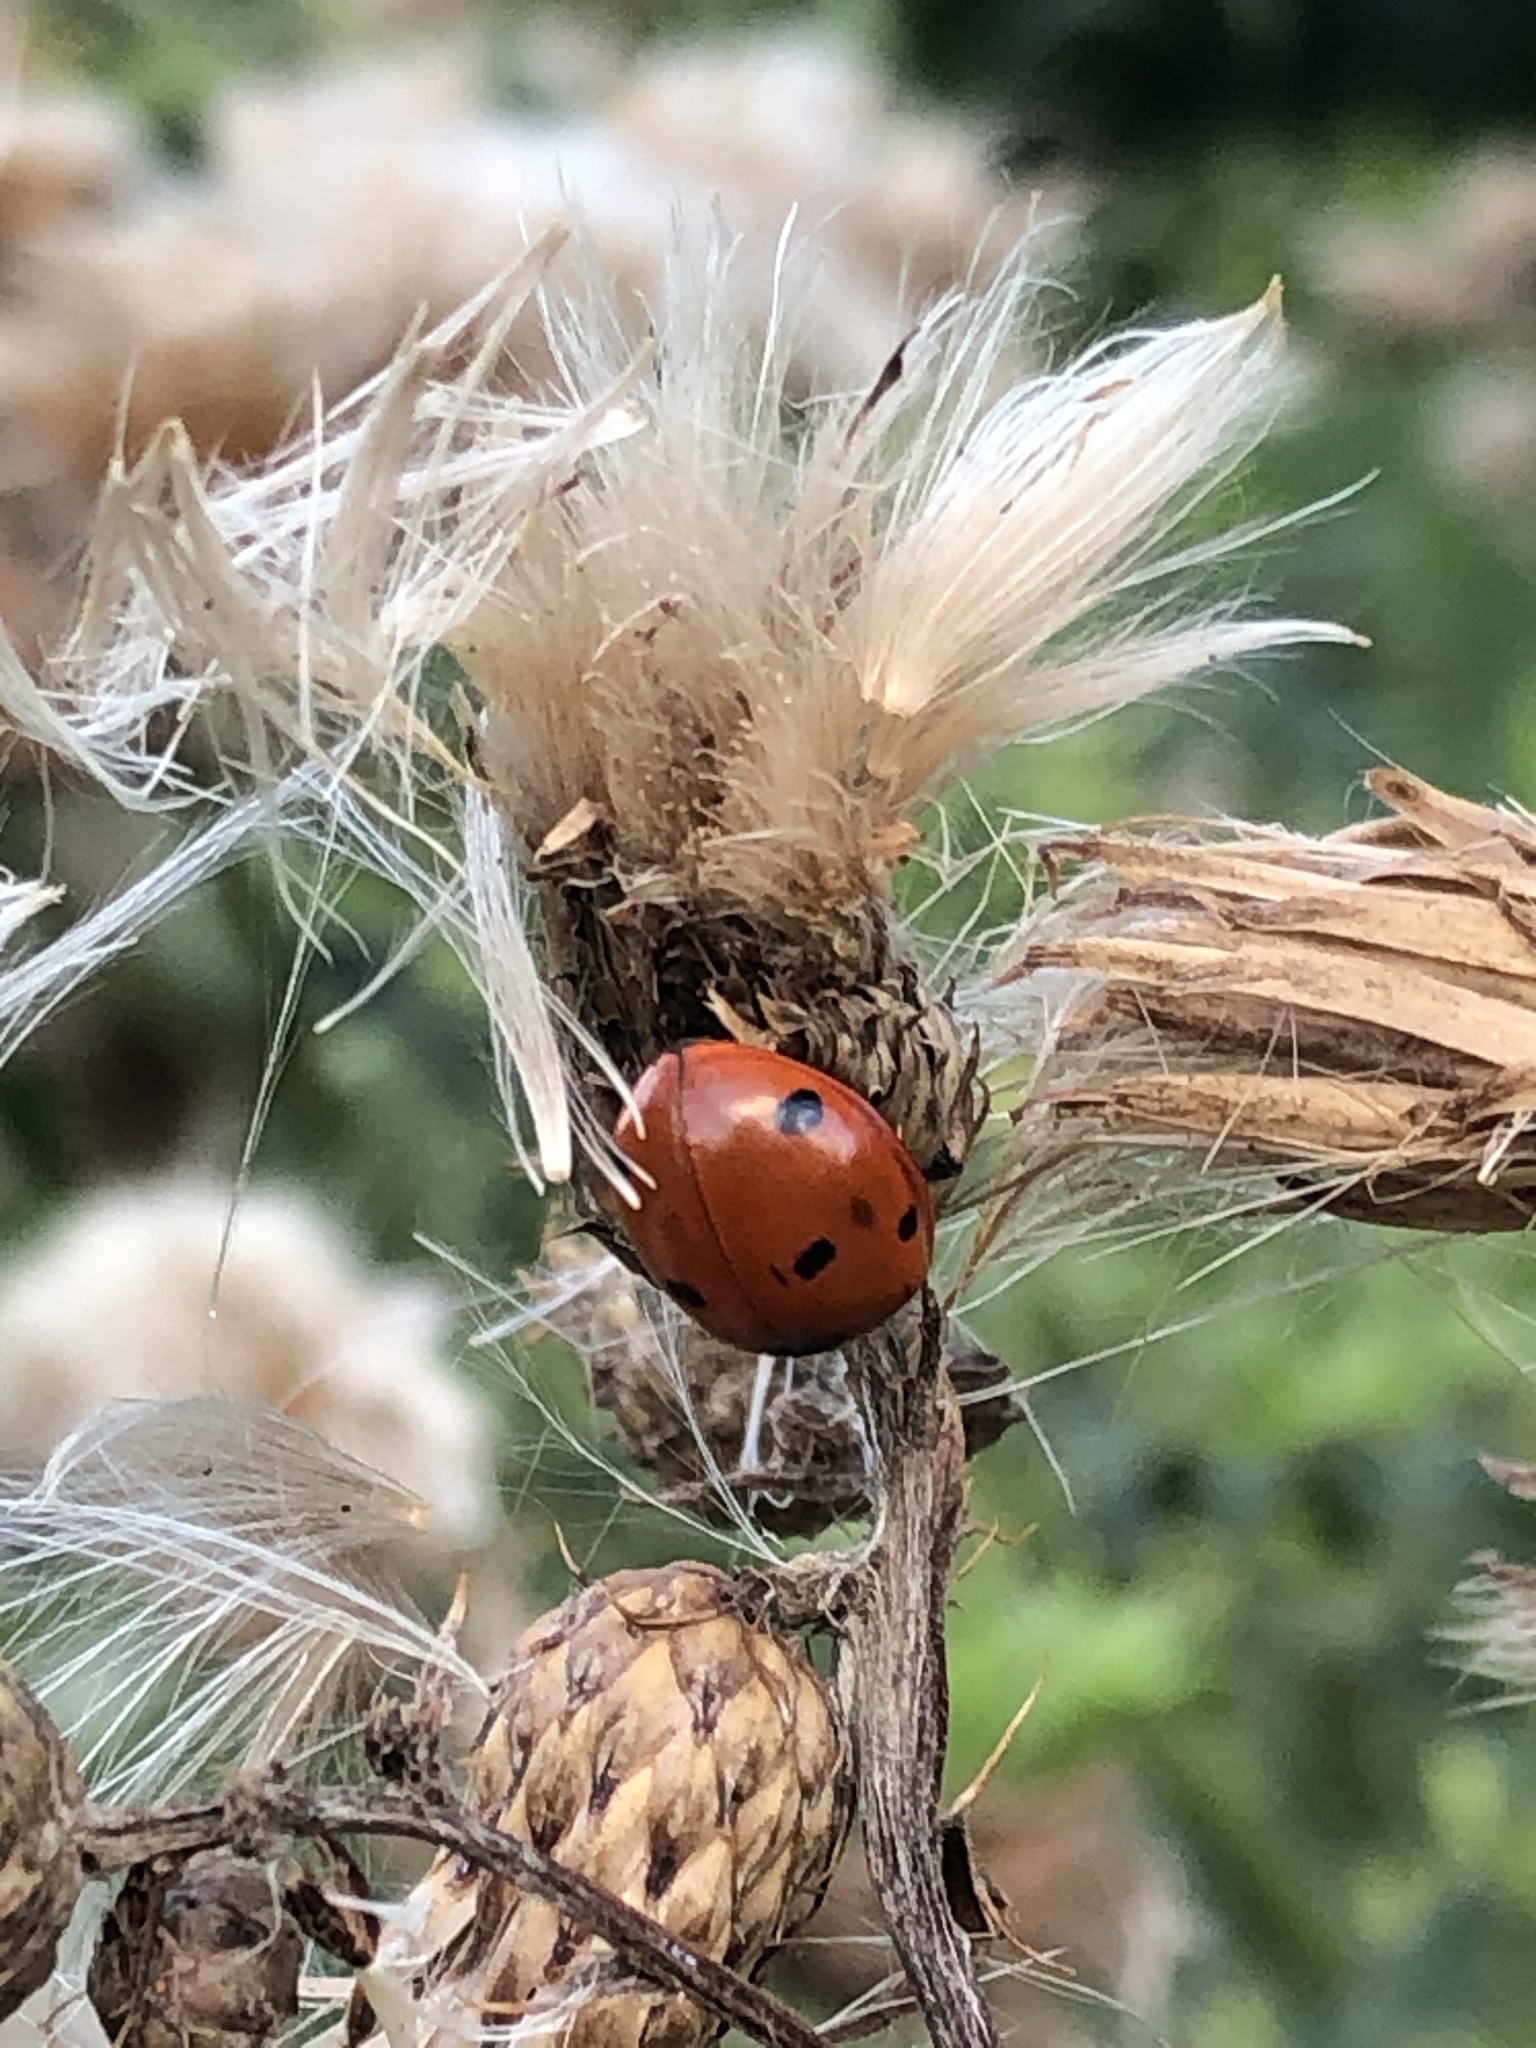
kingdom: Animalia
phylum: Arthropoda
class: Insecta
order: Coleoptera
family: Coccinellidae
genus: Coccinella
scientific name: Coccinella septempunctata
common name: Sevenspotted lady beetle
